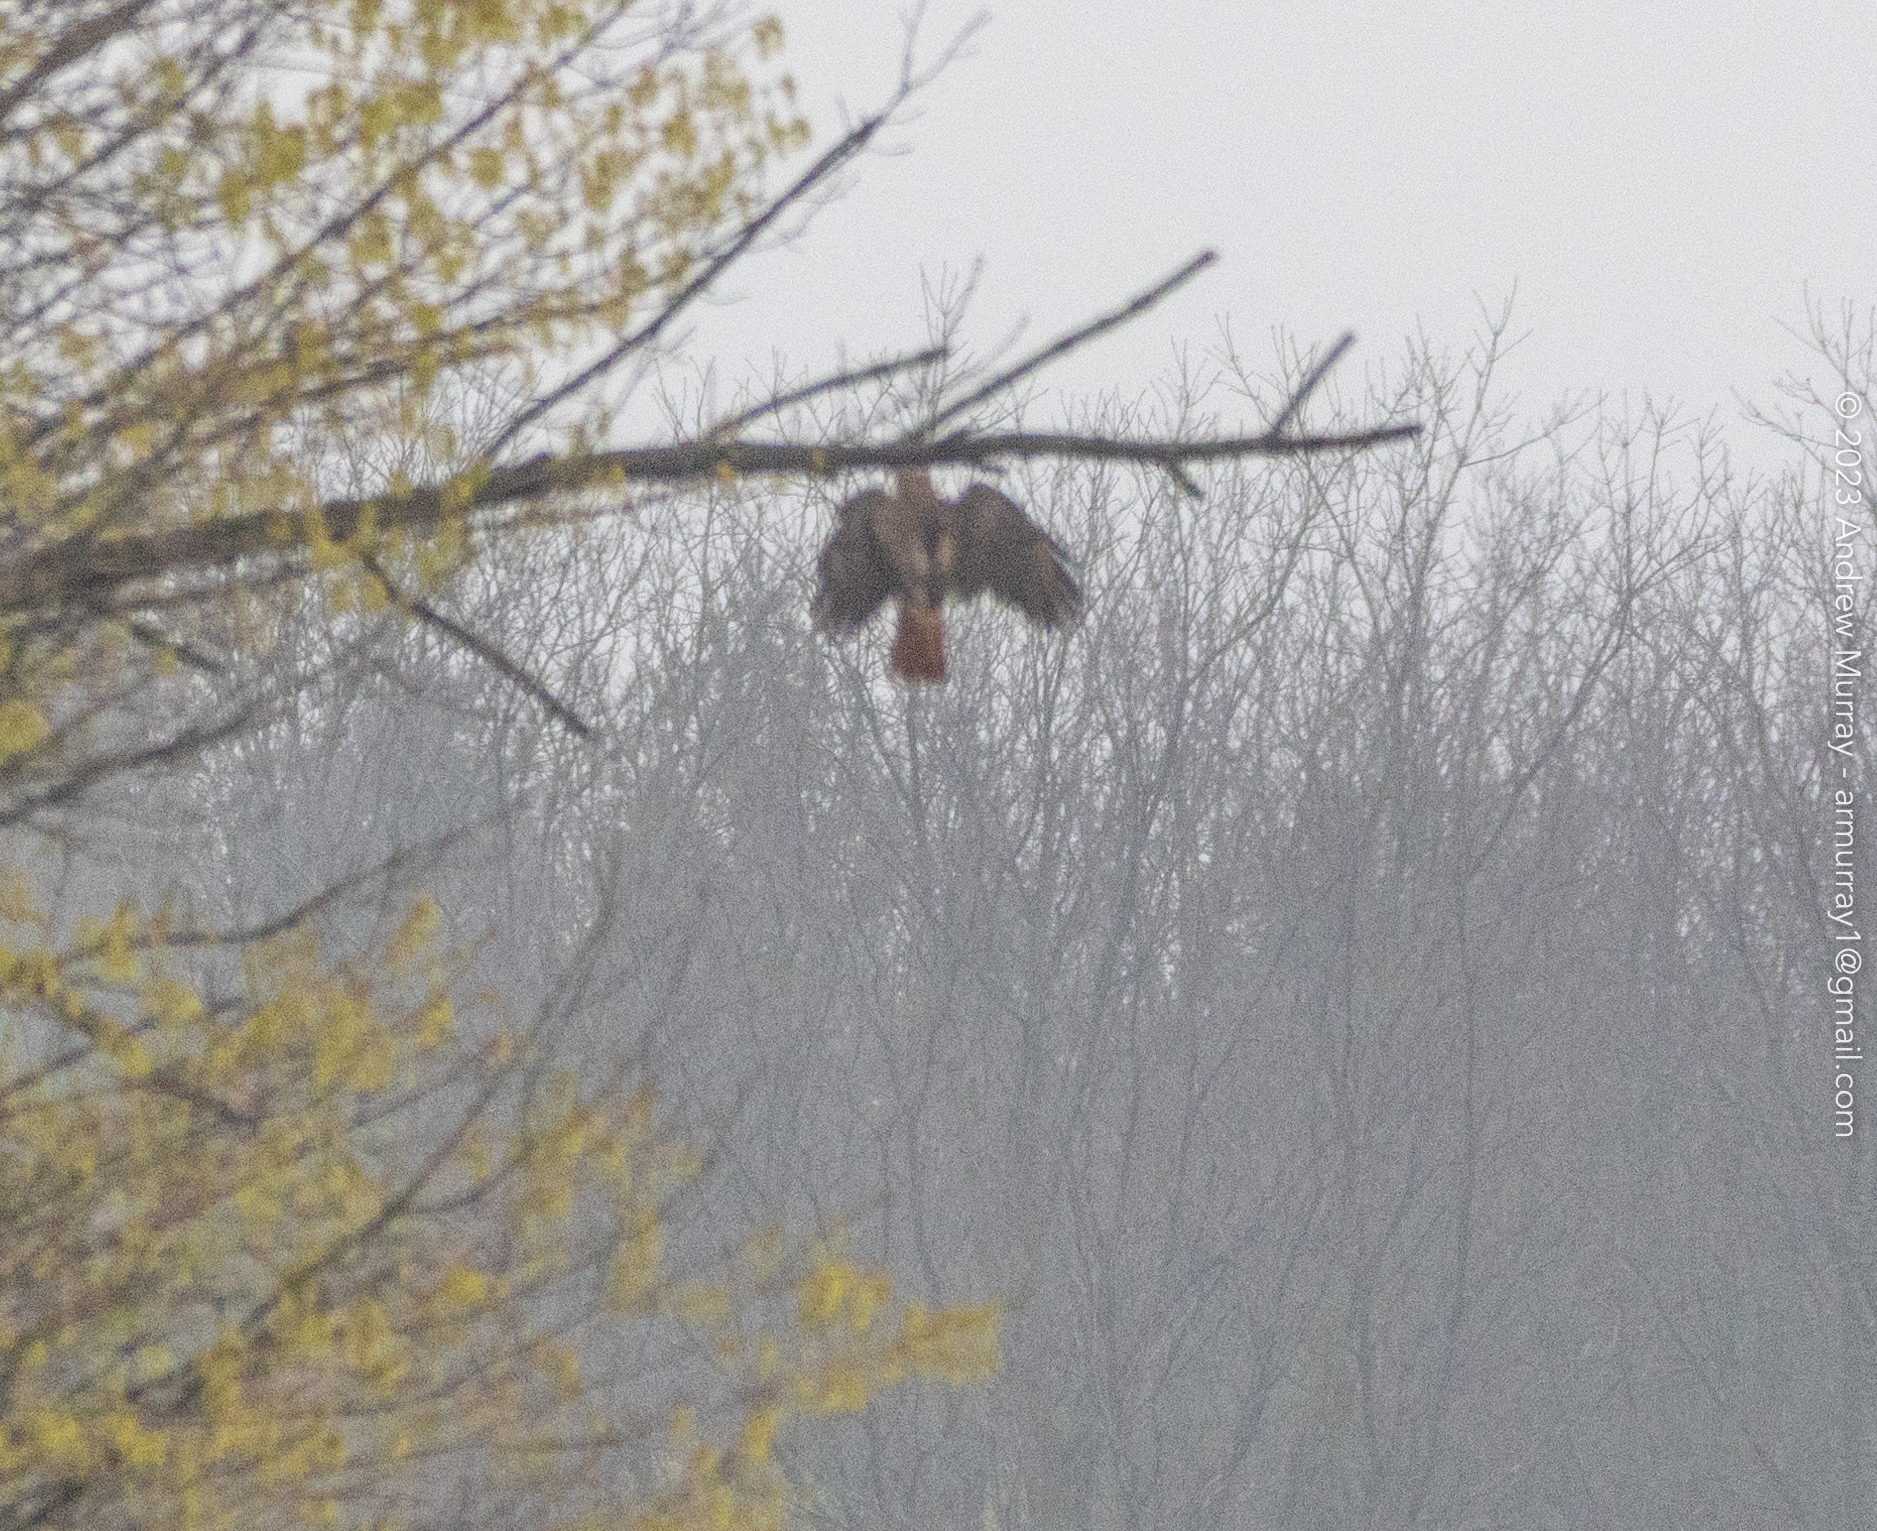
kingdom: Animalia
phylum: Chordata
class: Aves
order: Accipitriformes
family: Accipitridae
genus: Buteo
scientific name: Buteo jamaicensis
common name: Red-tailed hawk
